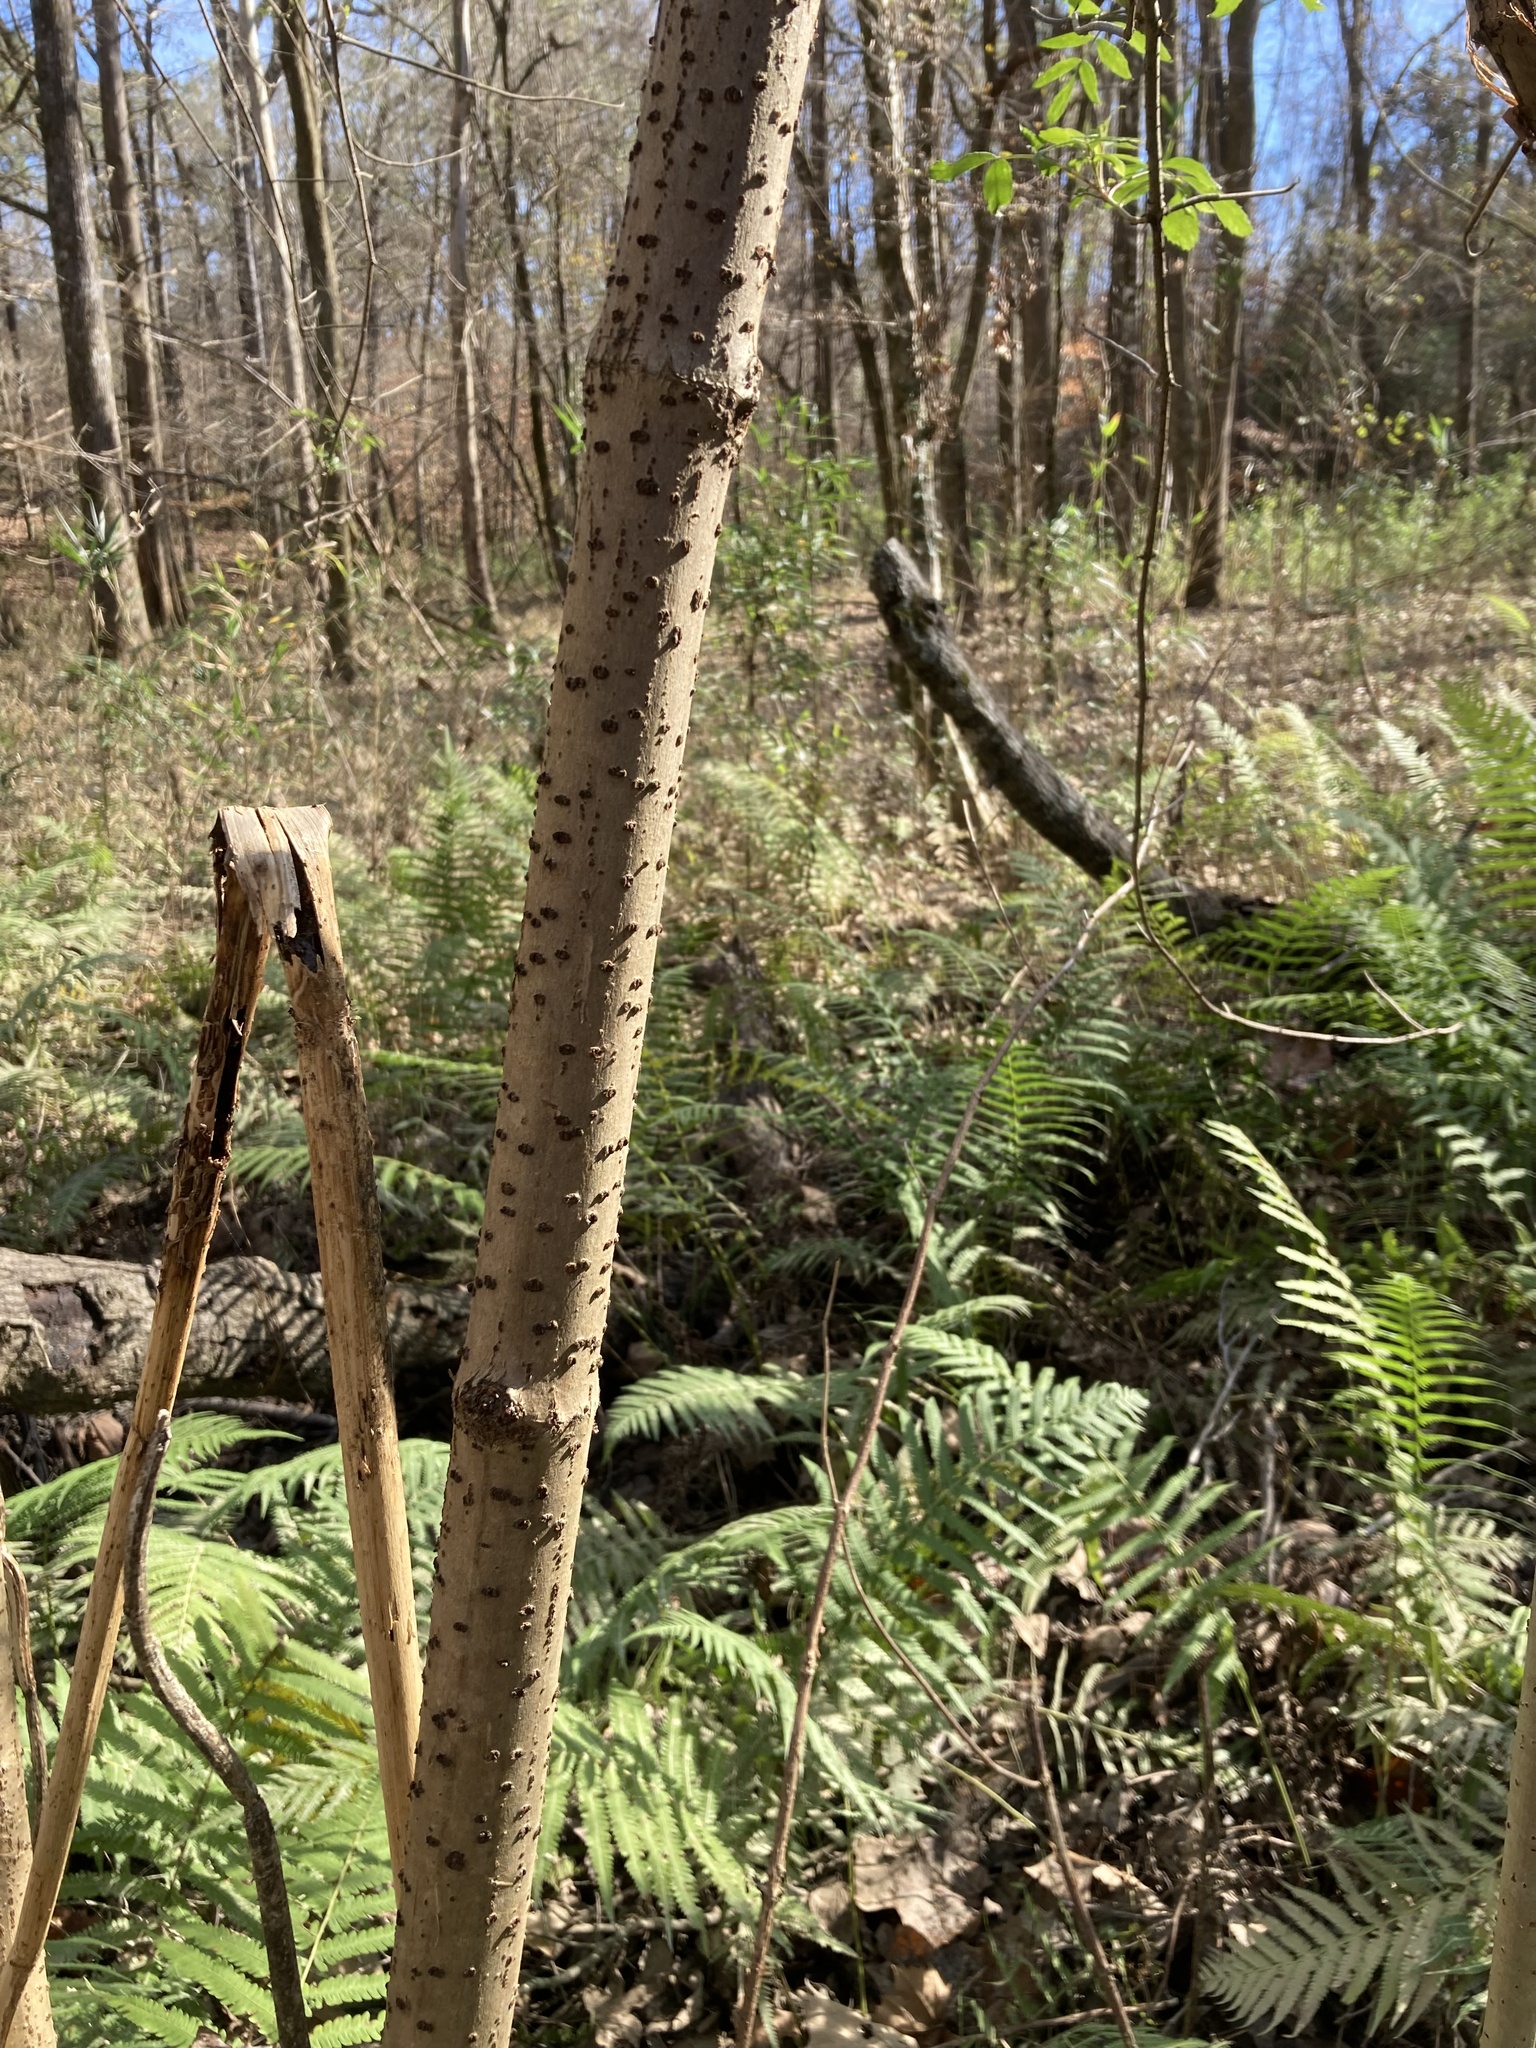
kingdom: Plantae
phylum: Tracheophyta
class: Magnoliopsida
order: Dipsacales
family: Viburnaceae
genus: Sambucus
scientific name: Sambucus canadensis
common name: American elder
